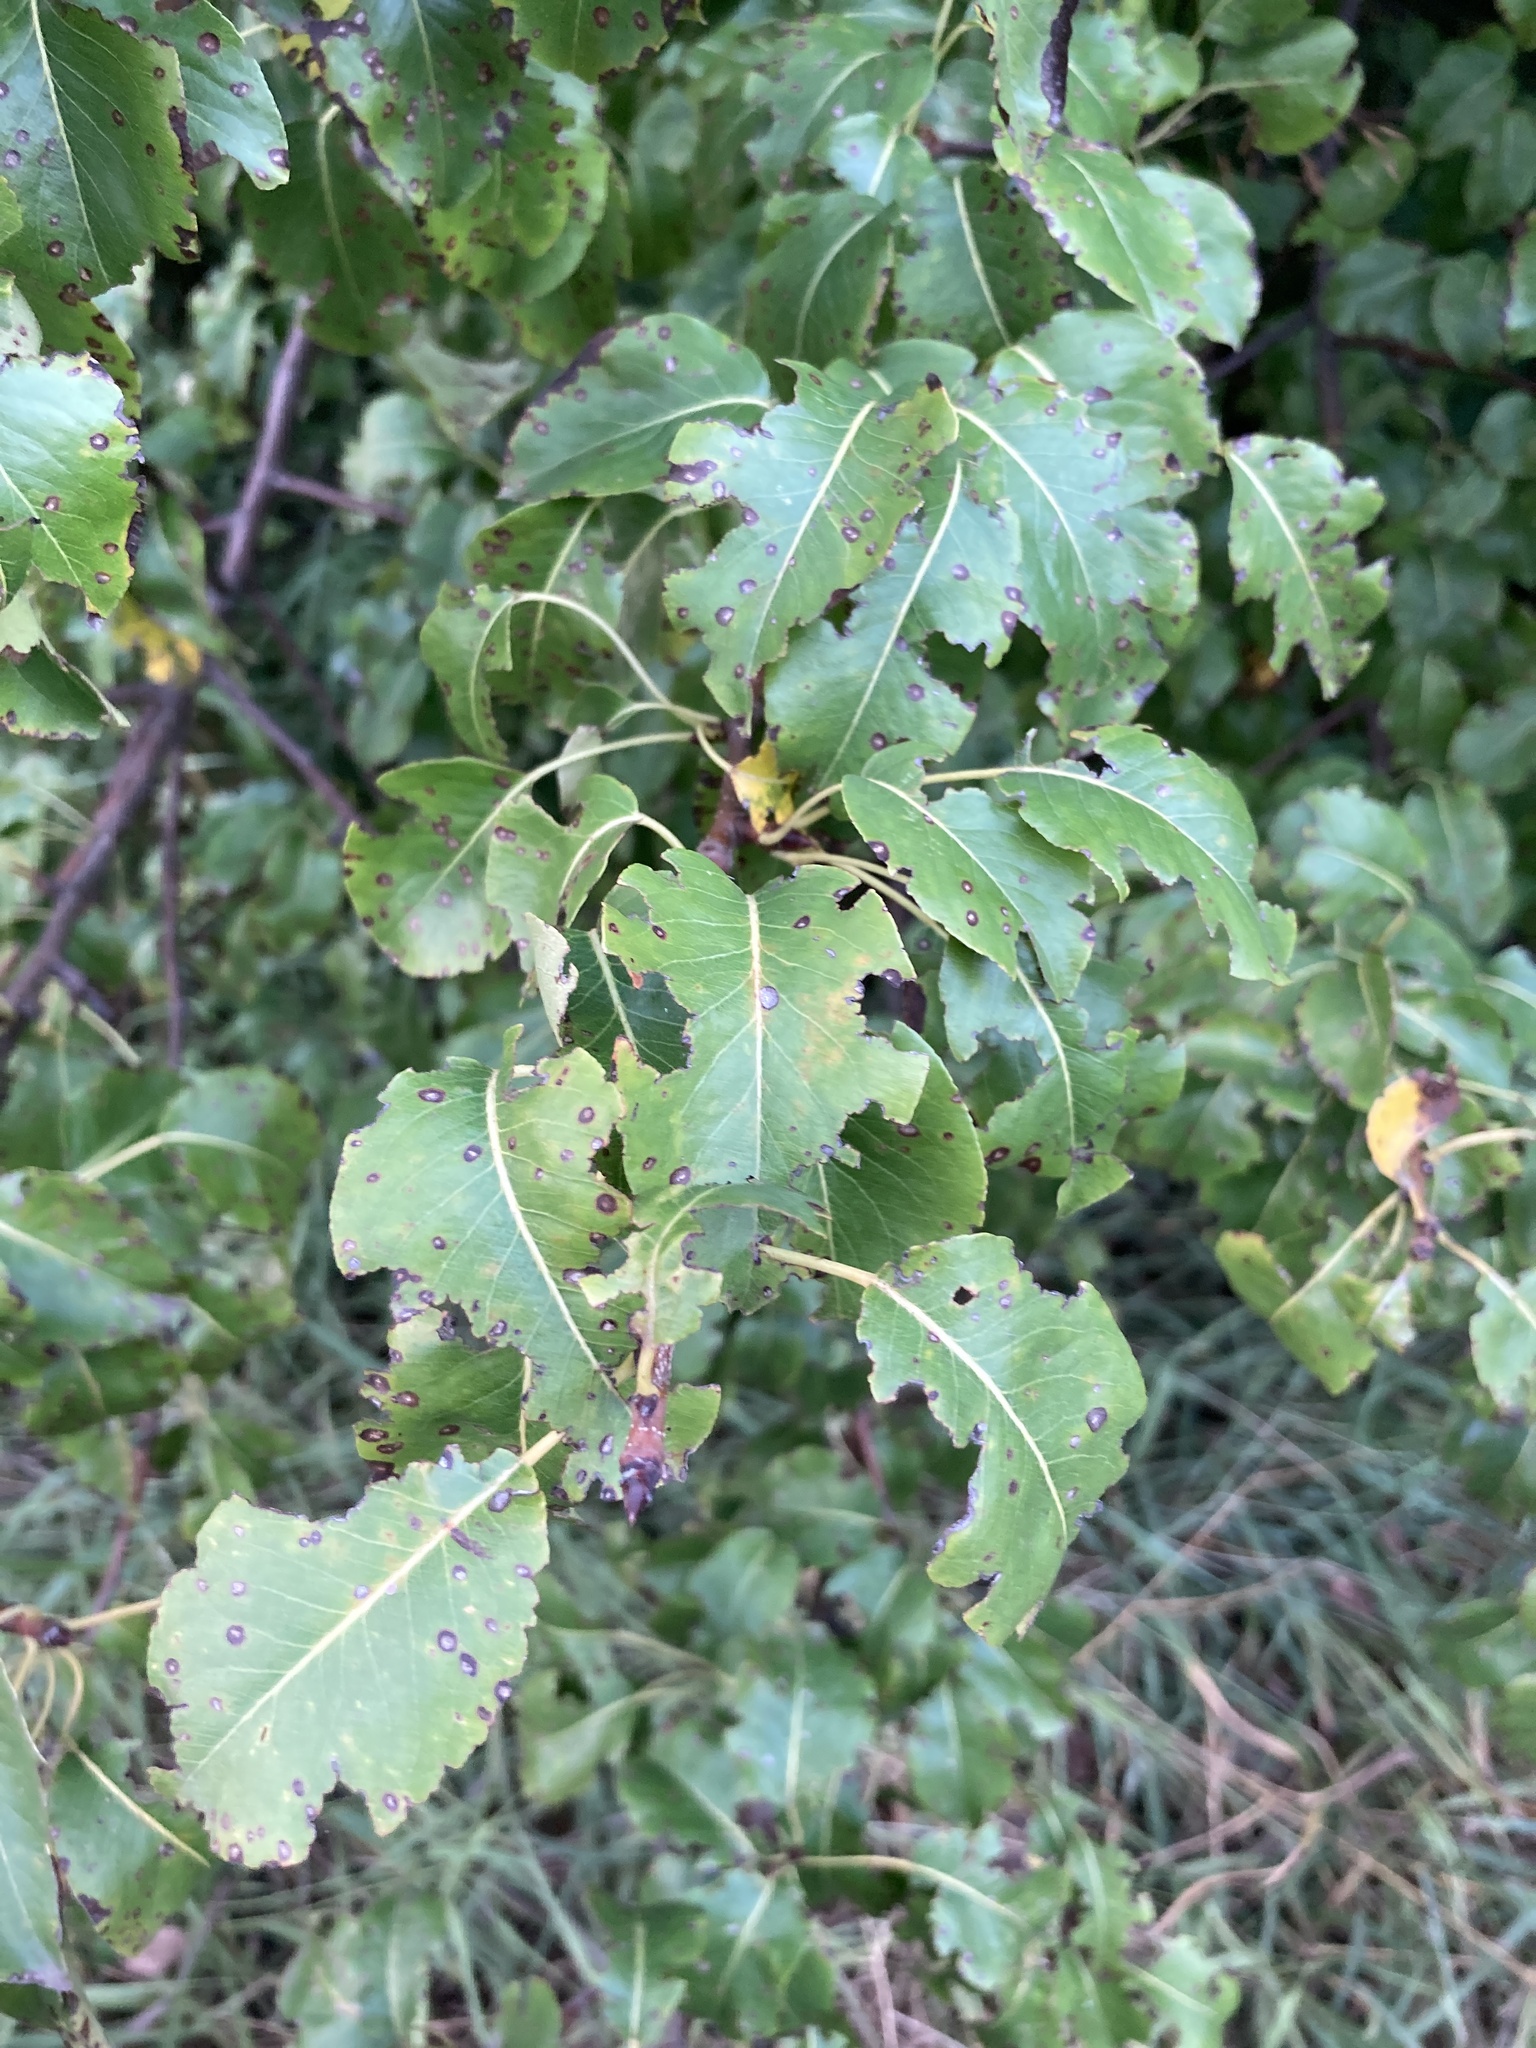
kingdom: Plantae
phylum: Tracheophyta
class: Magnoliopsida
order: Rosales
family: Rosaceae
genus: Pyrus
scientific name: Pyrus communis
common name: Pear
